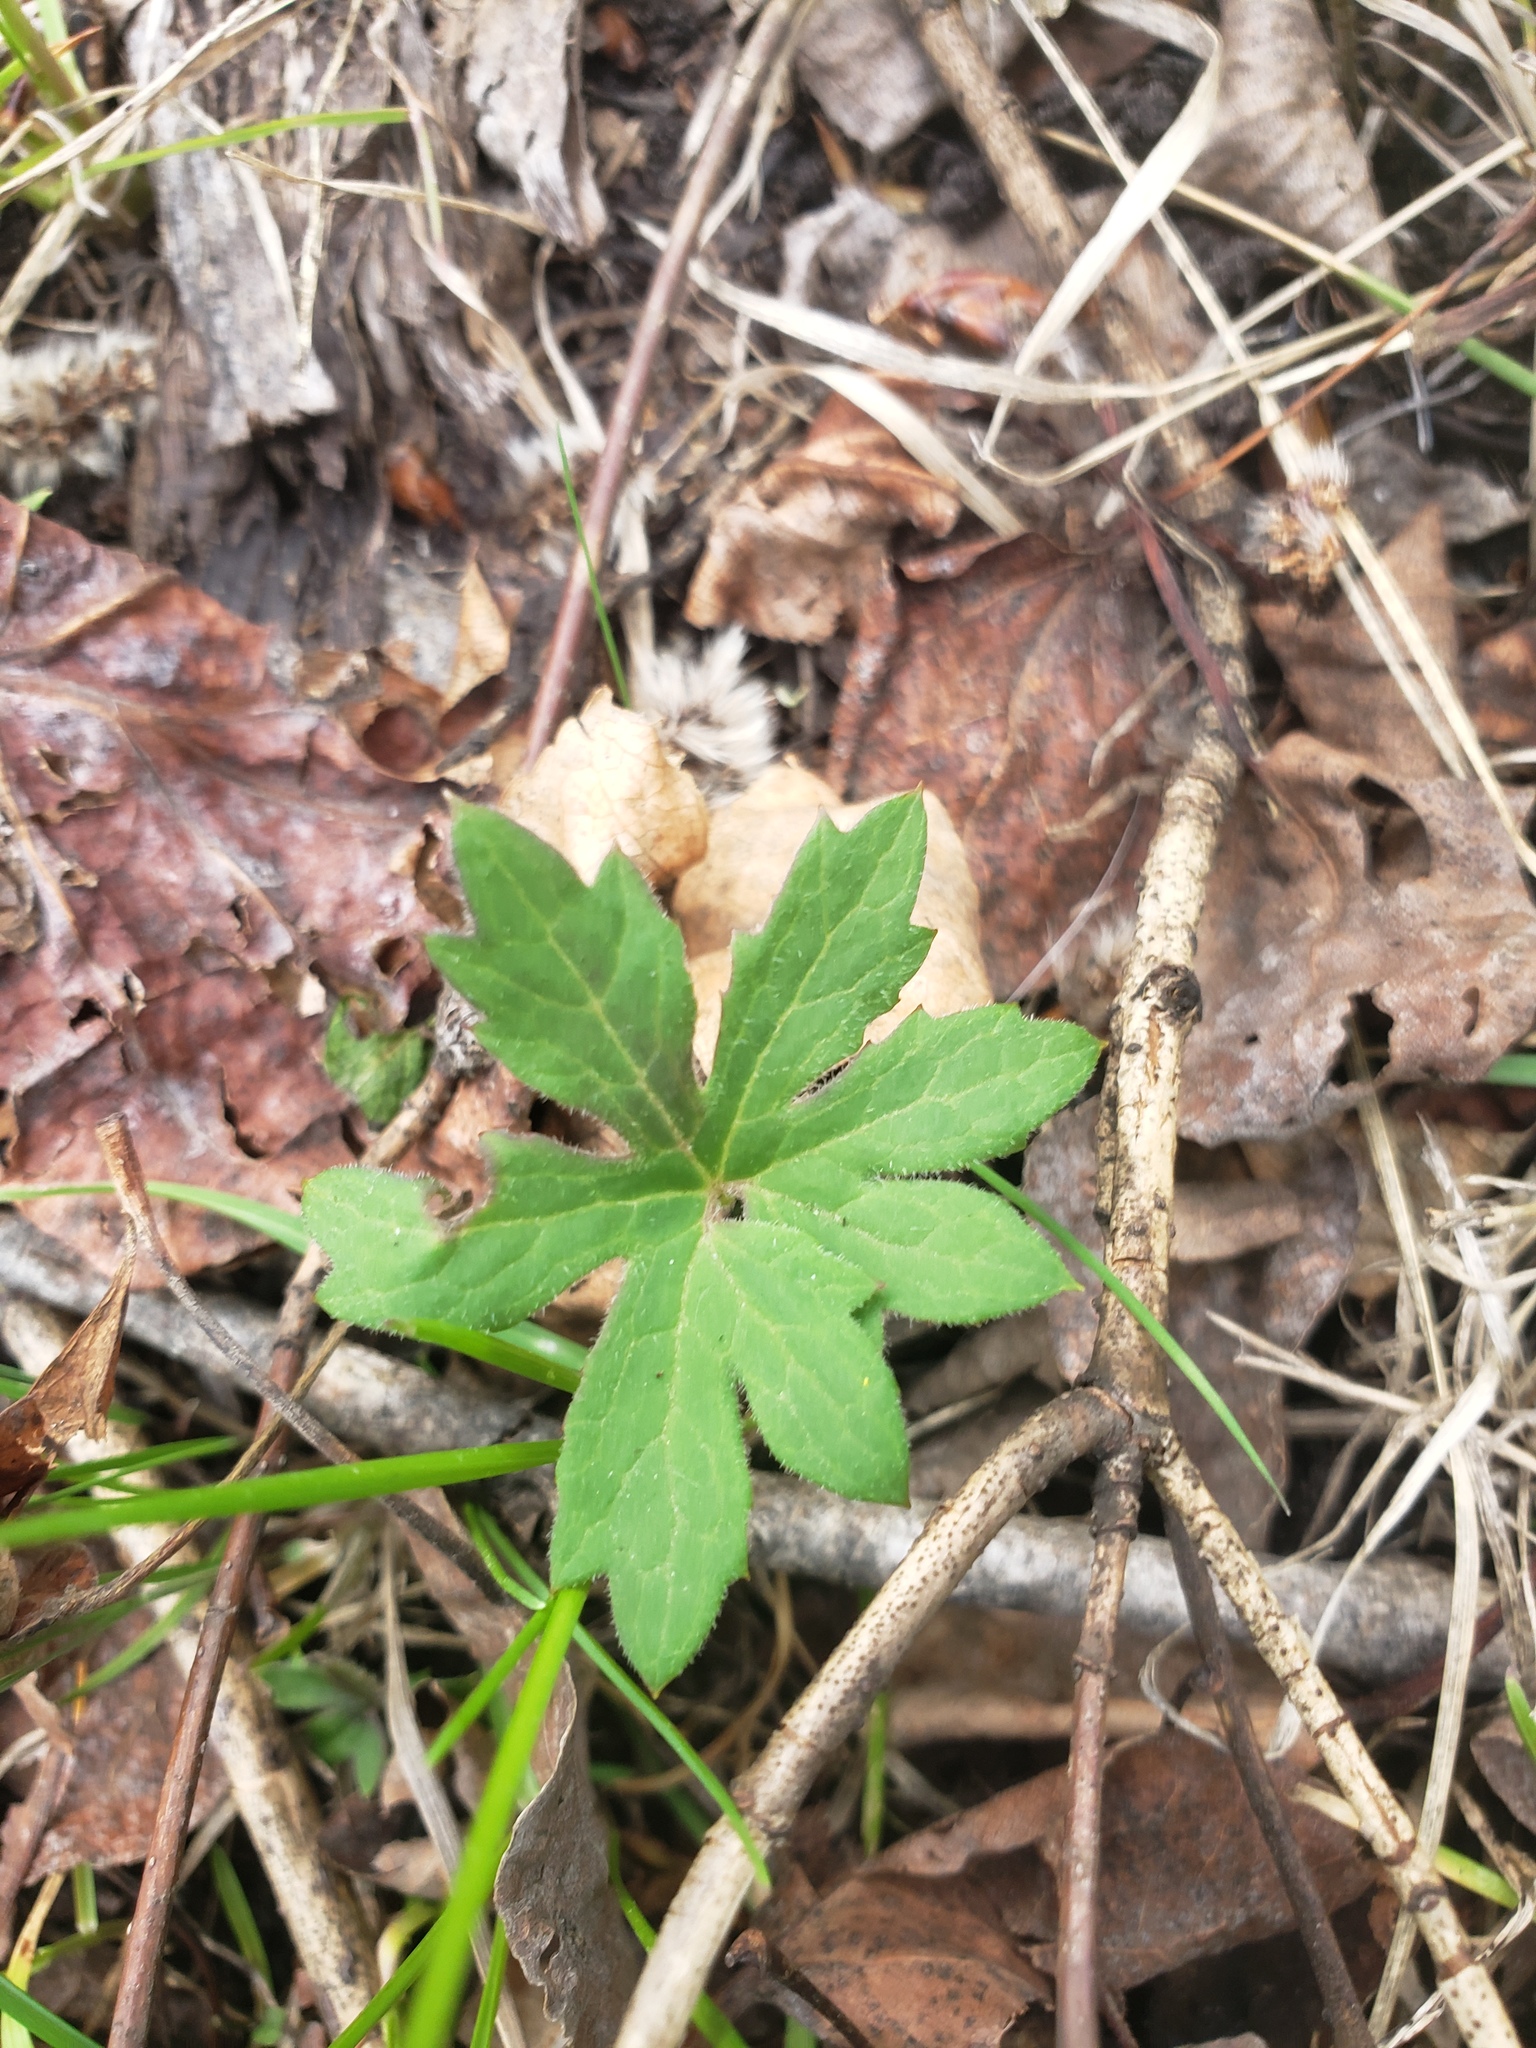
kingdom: Plantae
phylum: Tracheophyta
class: Magnoliopsida
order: Asterales
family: Asteraceae
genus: Petasites
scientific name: Petasites frigidus
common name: Arctic butterbur
